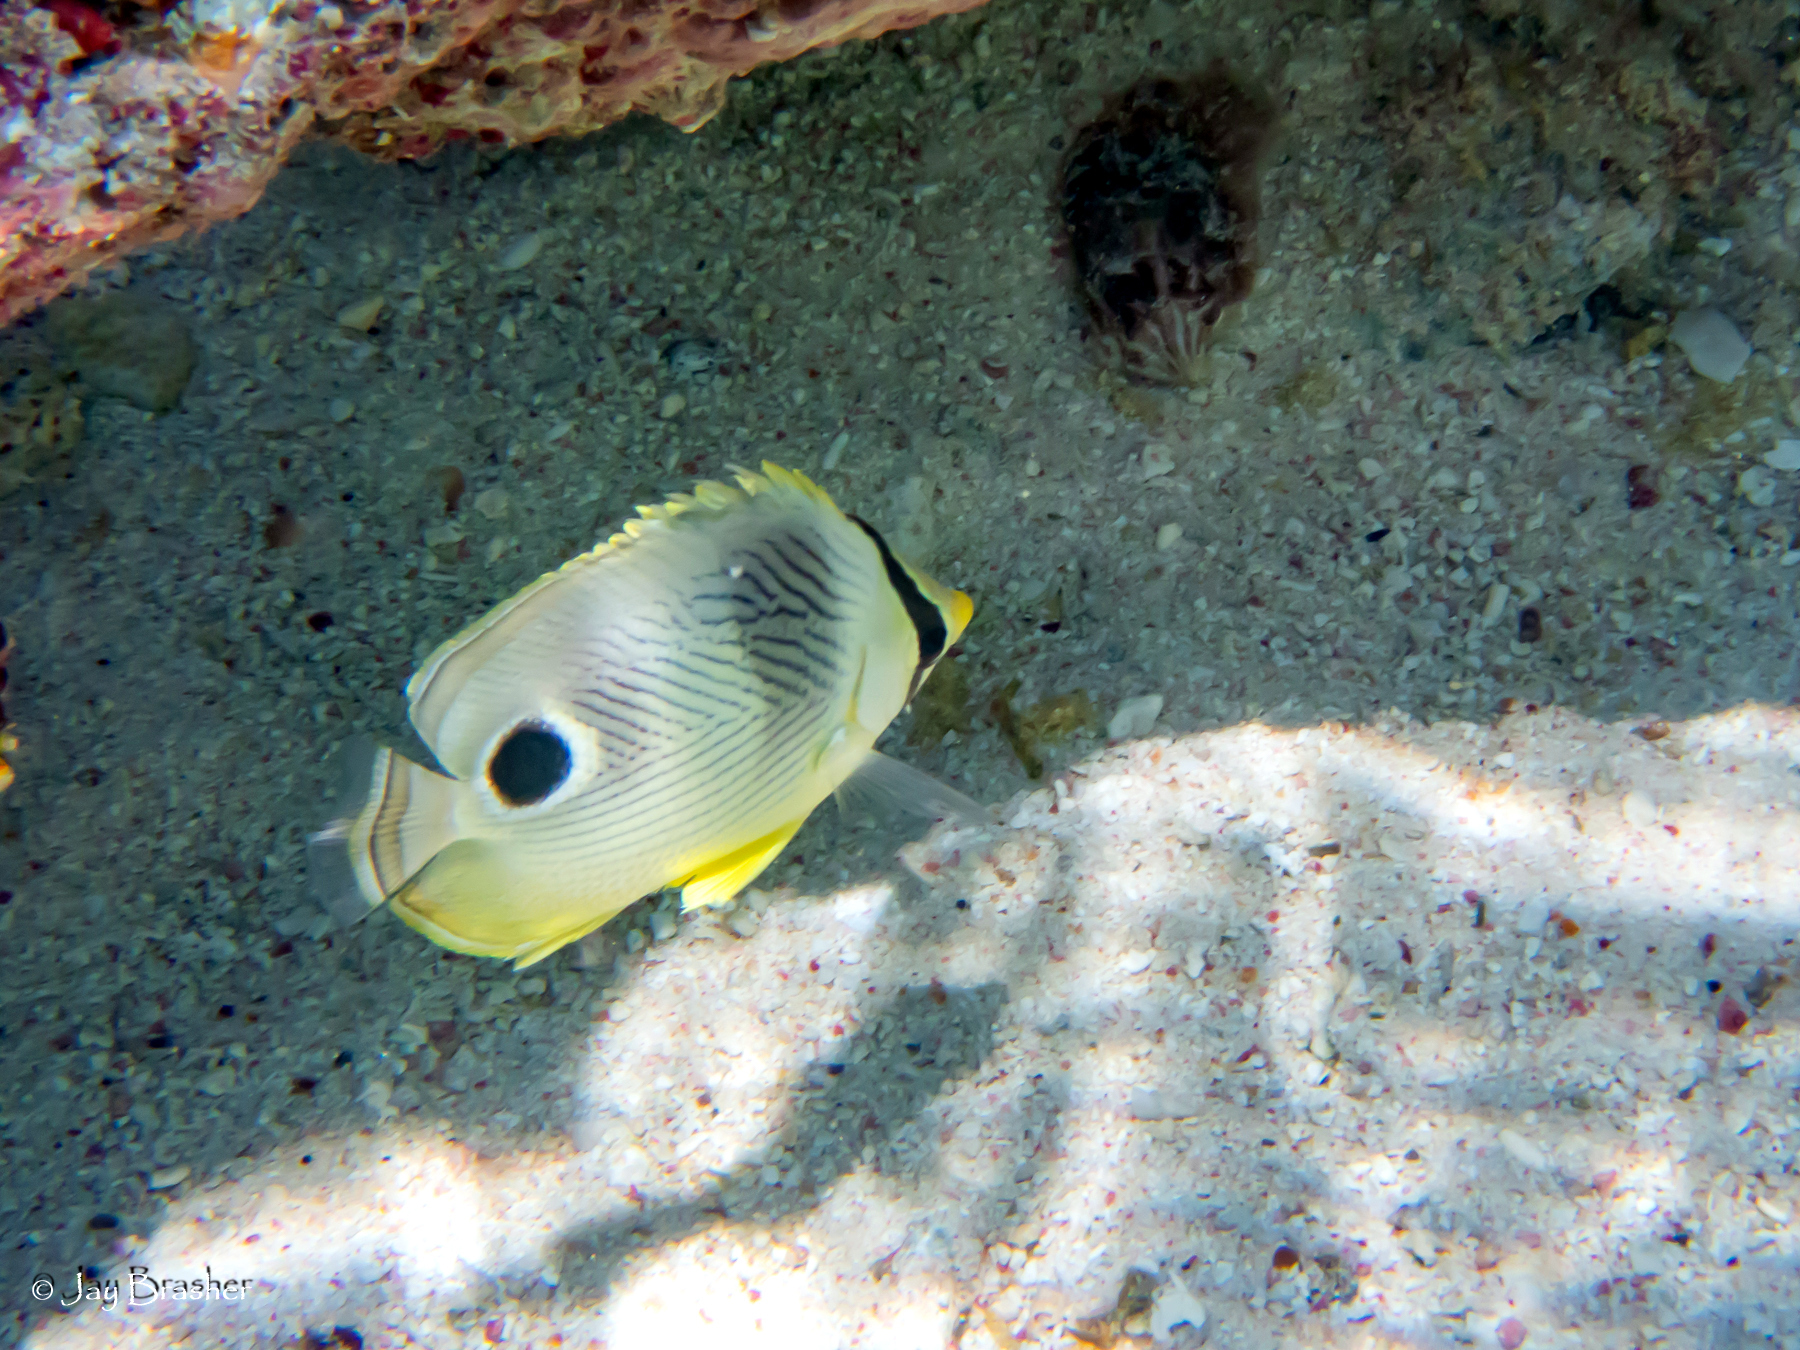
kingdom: Animalia
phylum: Chordata
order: Perciformes
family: Chaetodontidae
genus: Chaetodon
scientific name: Chaetodon capistratus
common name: Kete
